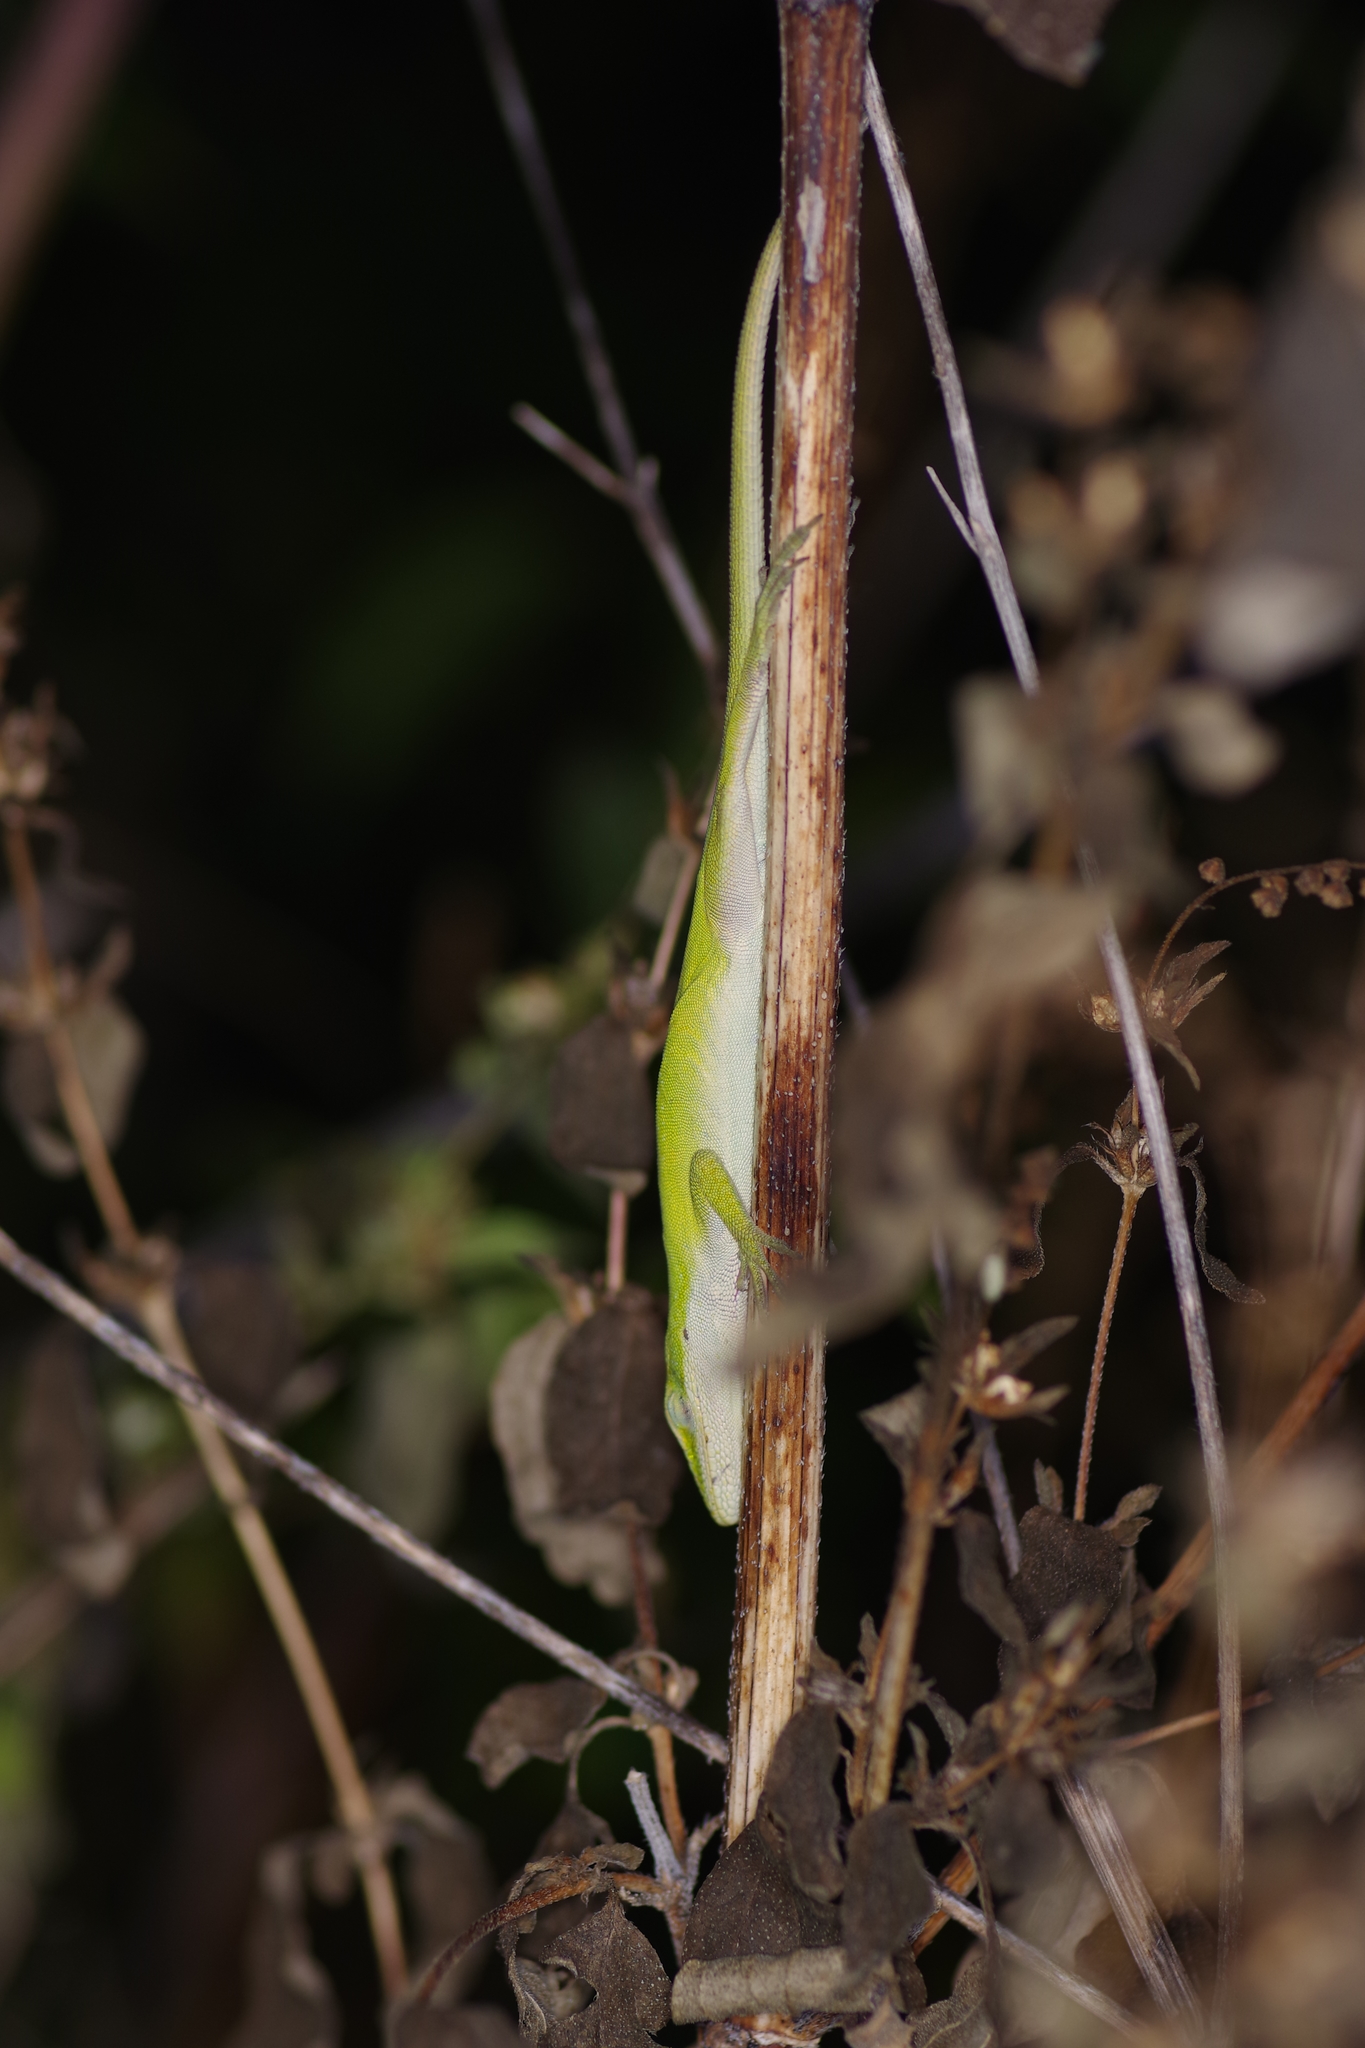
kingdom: Animalia
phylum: Chordata
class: Squamata
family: Dactyloidae
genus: Anolis
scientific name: Anolis carolinensis
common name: Green anole
